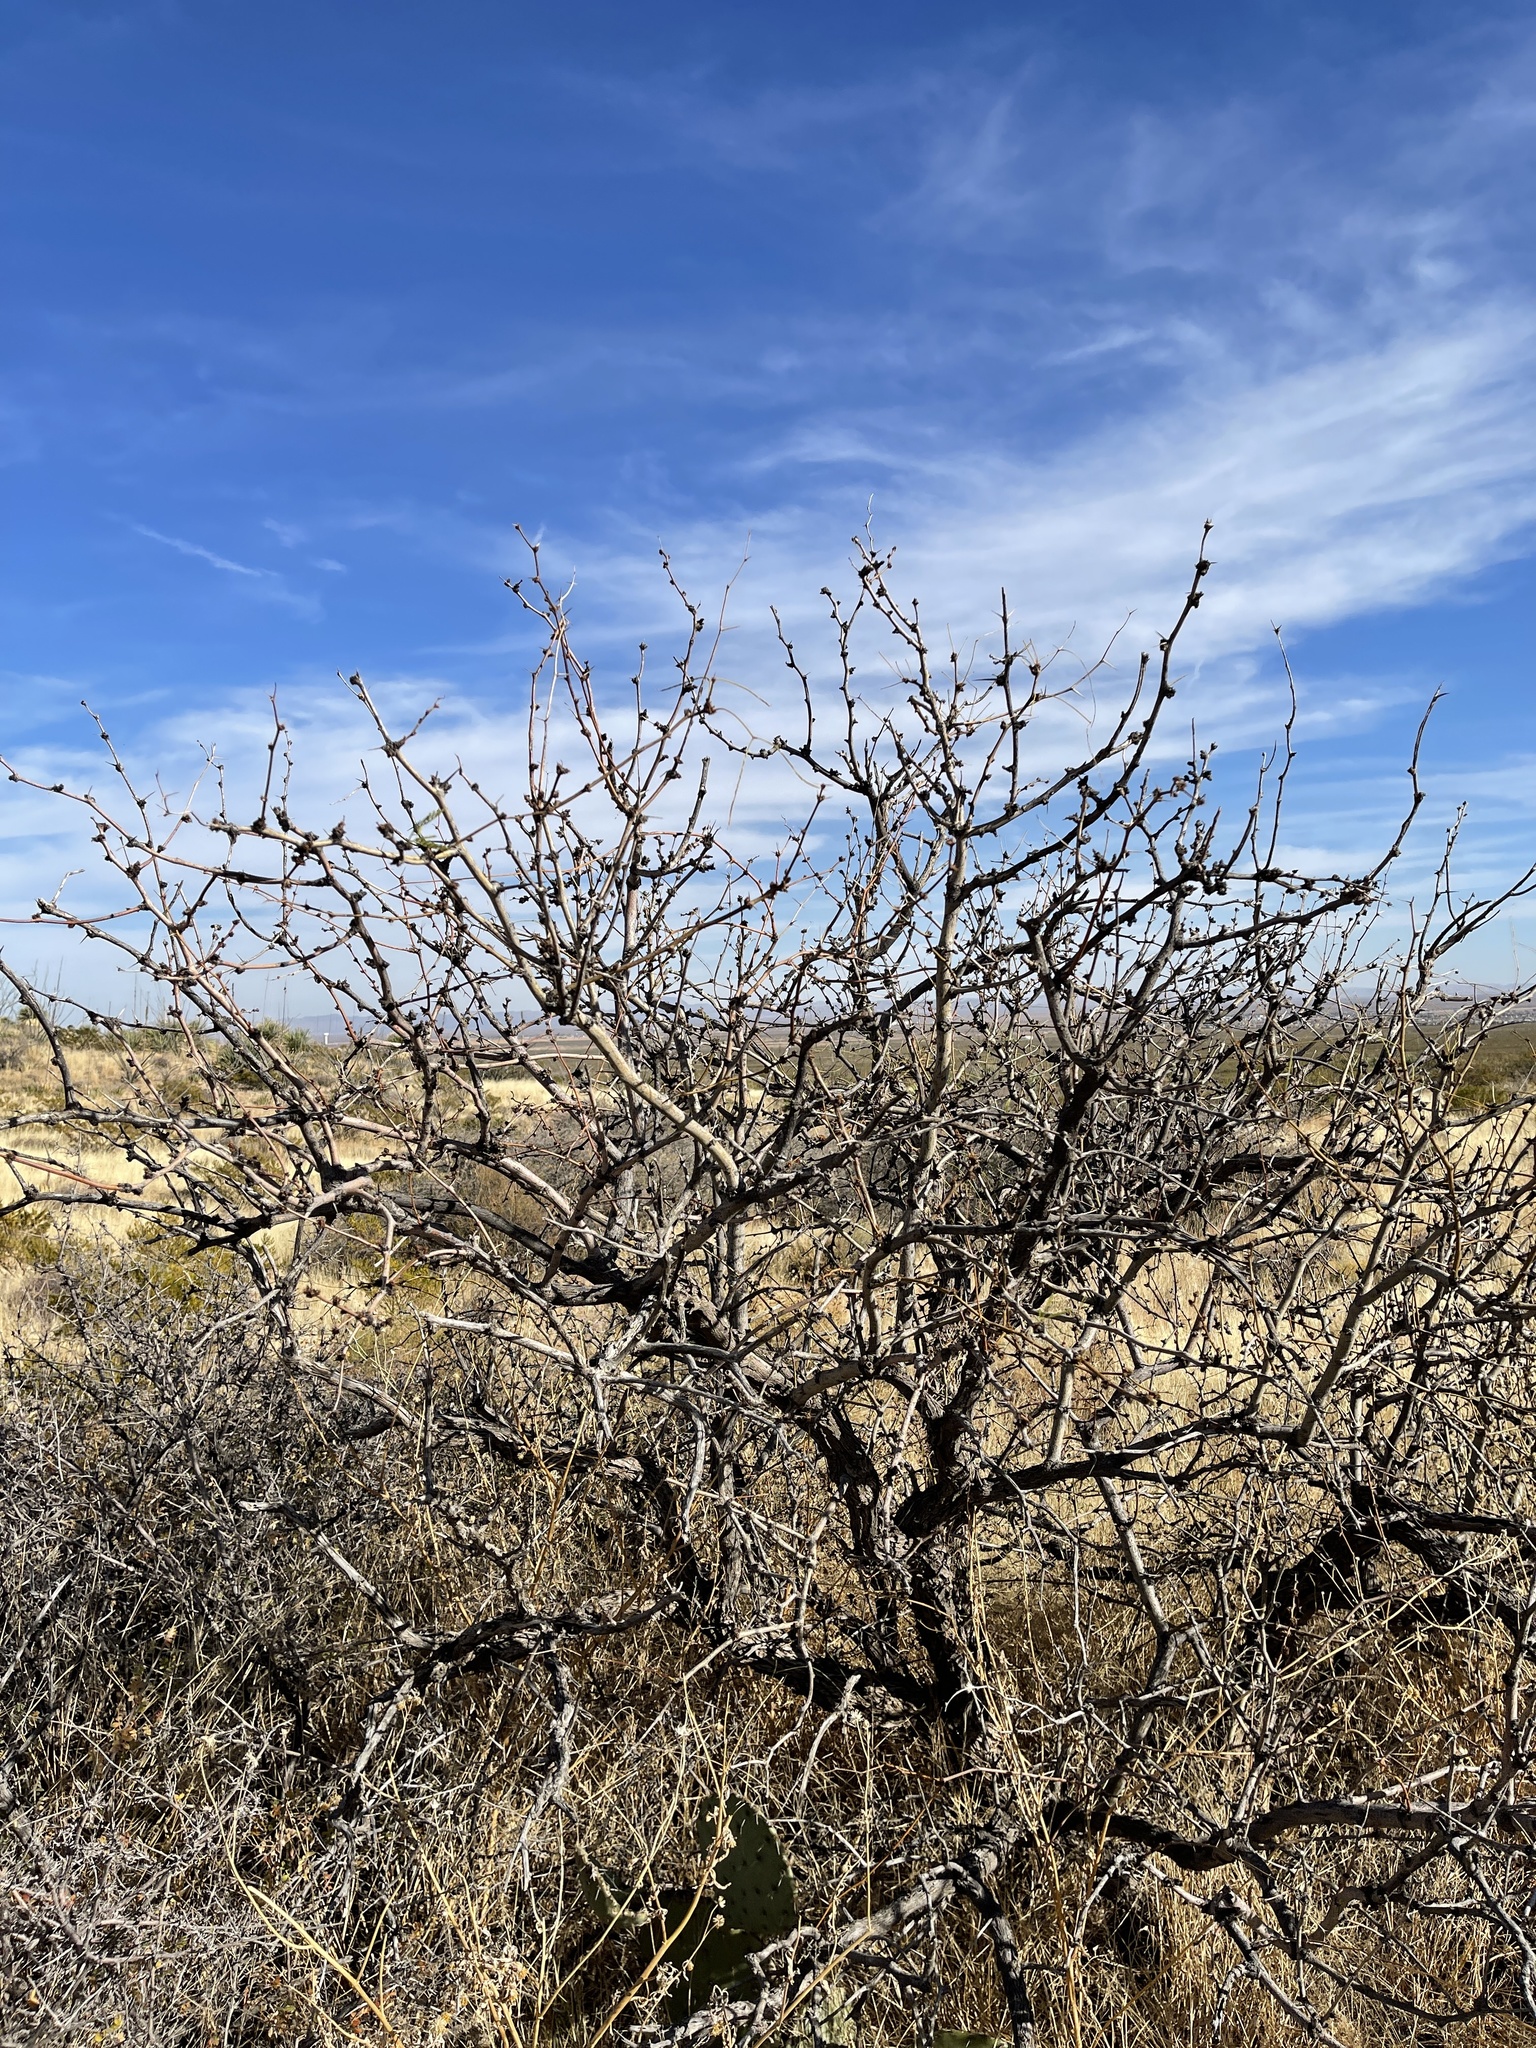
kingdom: Plantae
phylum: Tracheophyta
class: Magnoliopsida
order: Fabales
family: Fabaceae
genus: Prosopis
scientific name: Prosopis glandulosa
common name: Honey mesquite
